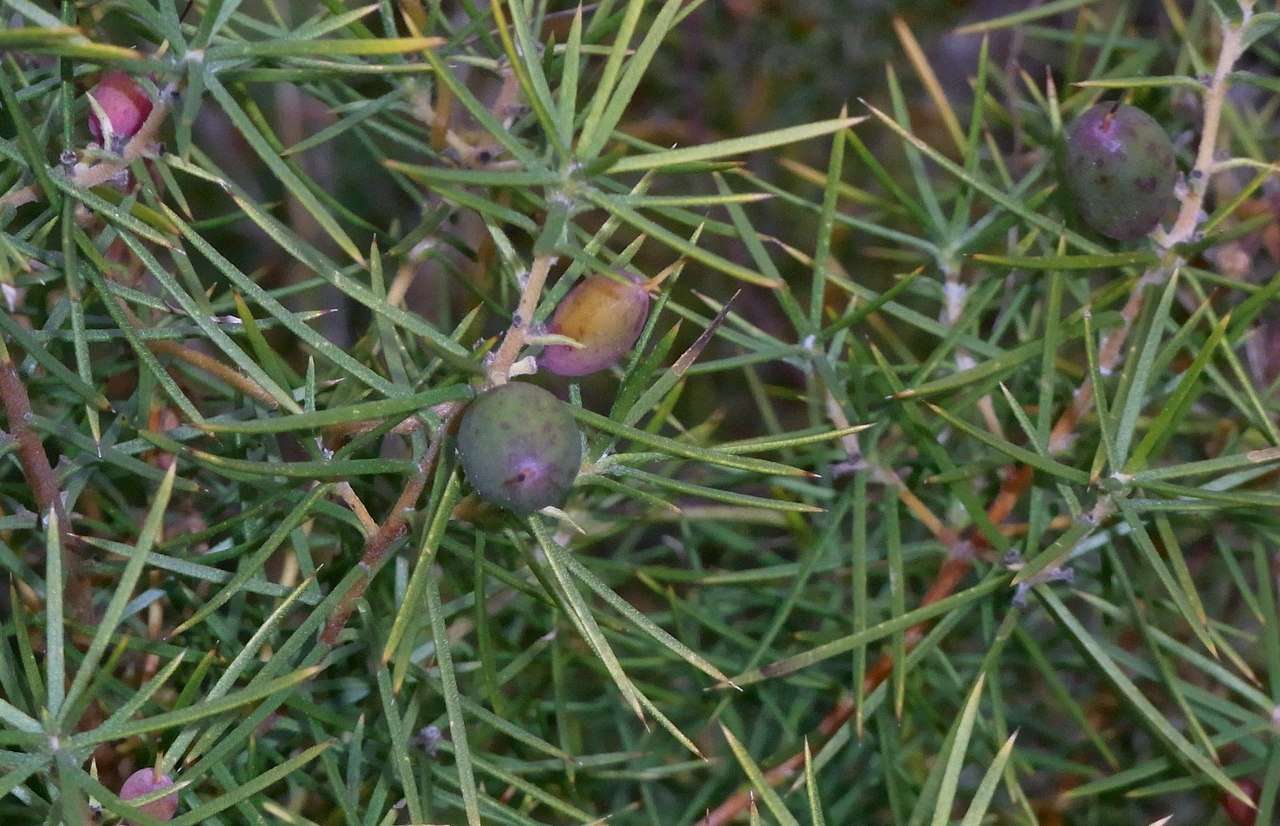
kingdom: Plantae
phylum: Tracheophyta
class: Magnoliopsida
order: Proteales
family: Proteaceae
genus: Persoonia
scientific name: Persoonia juniperina
